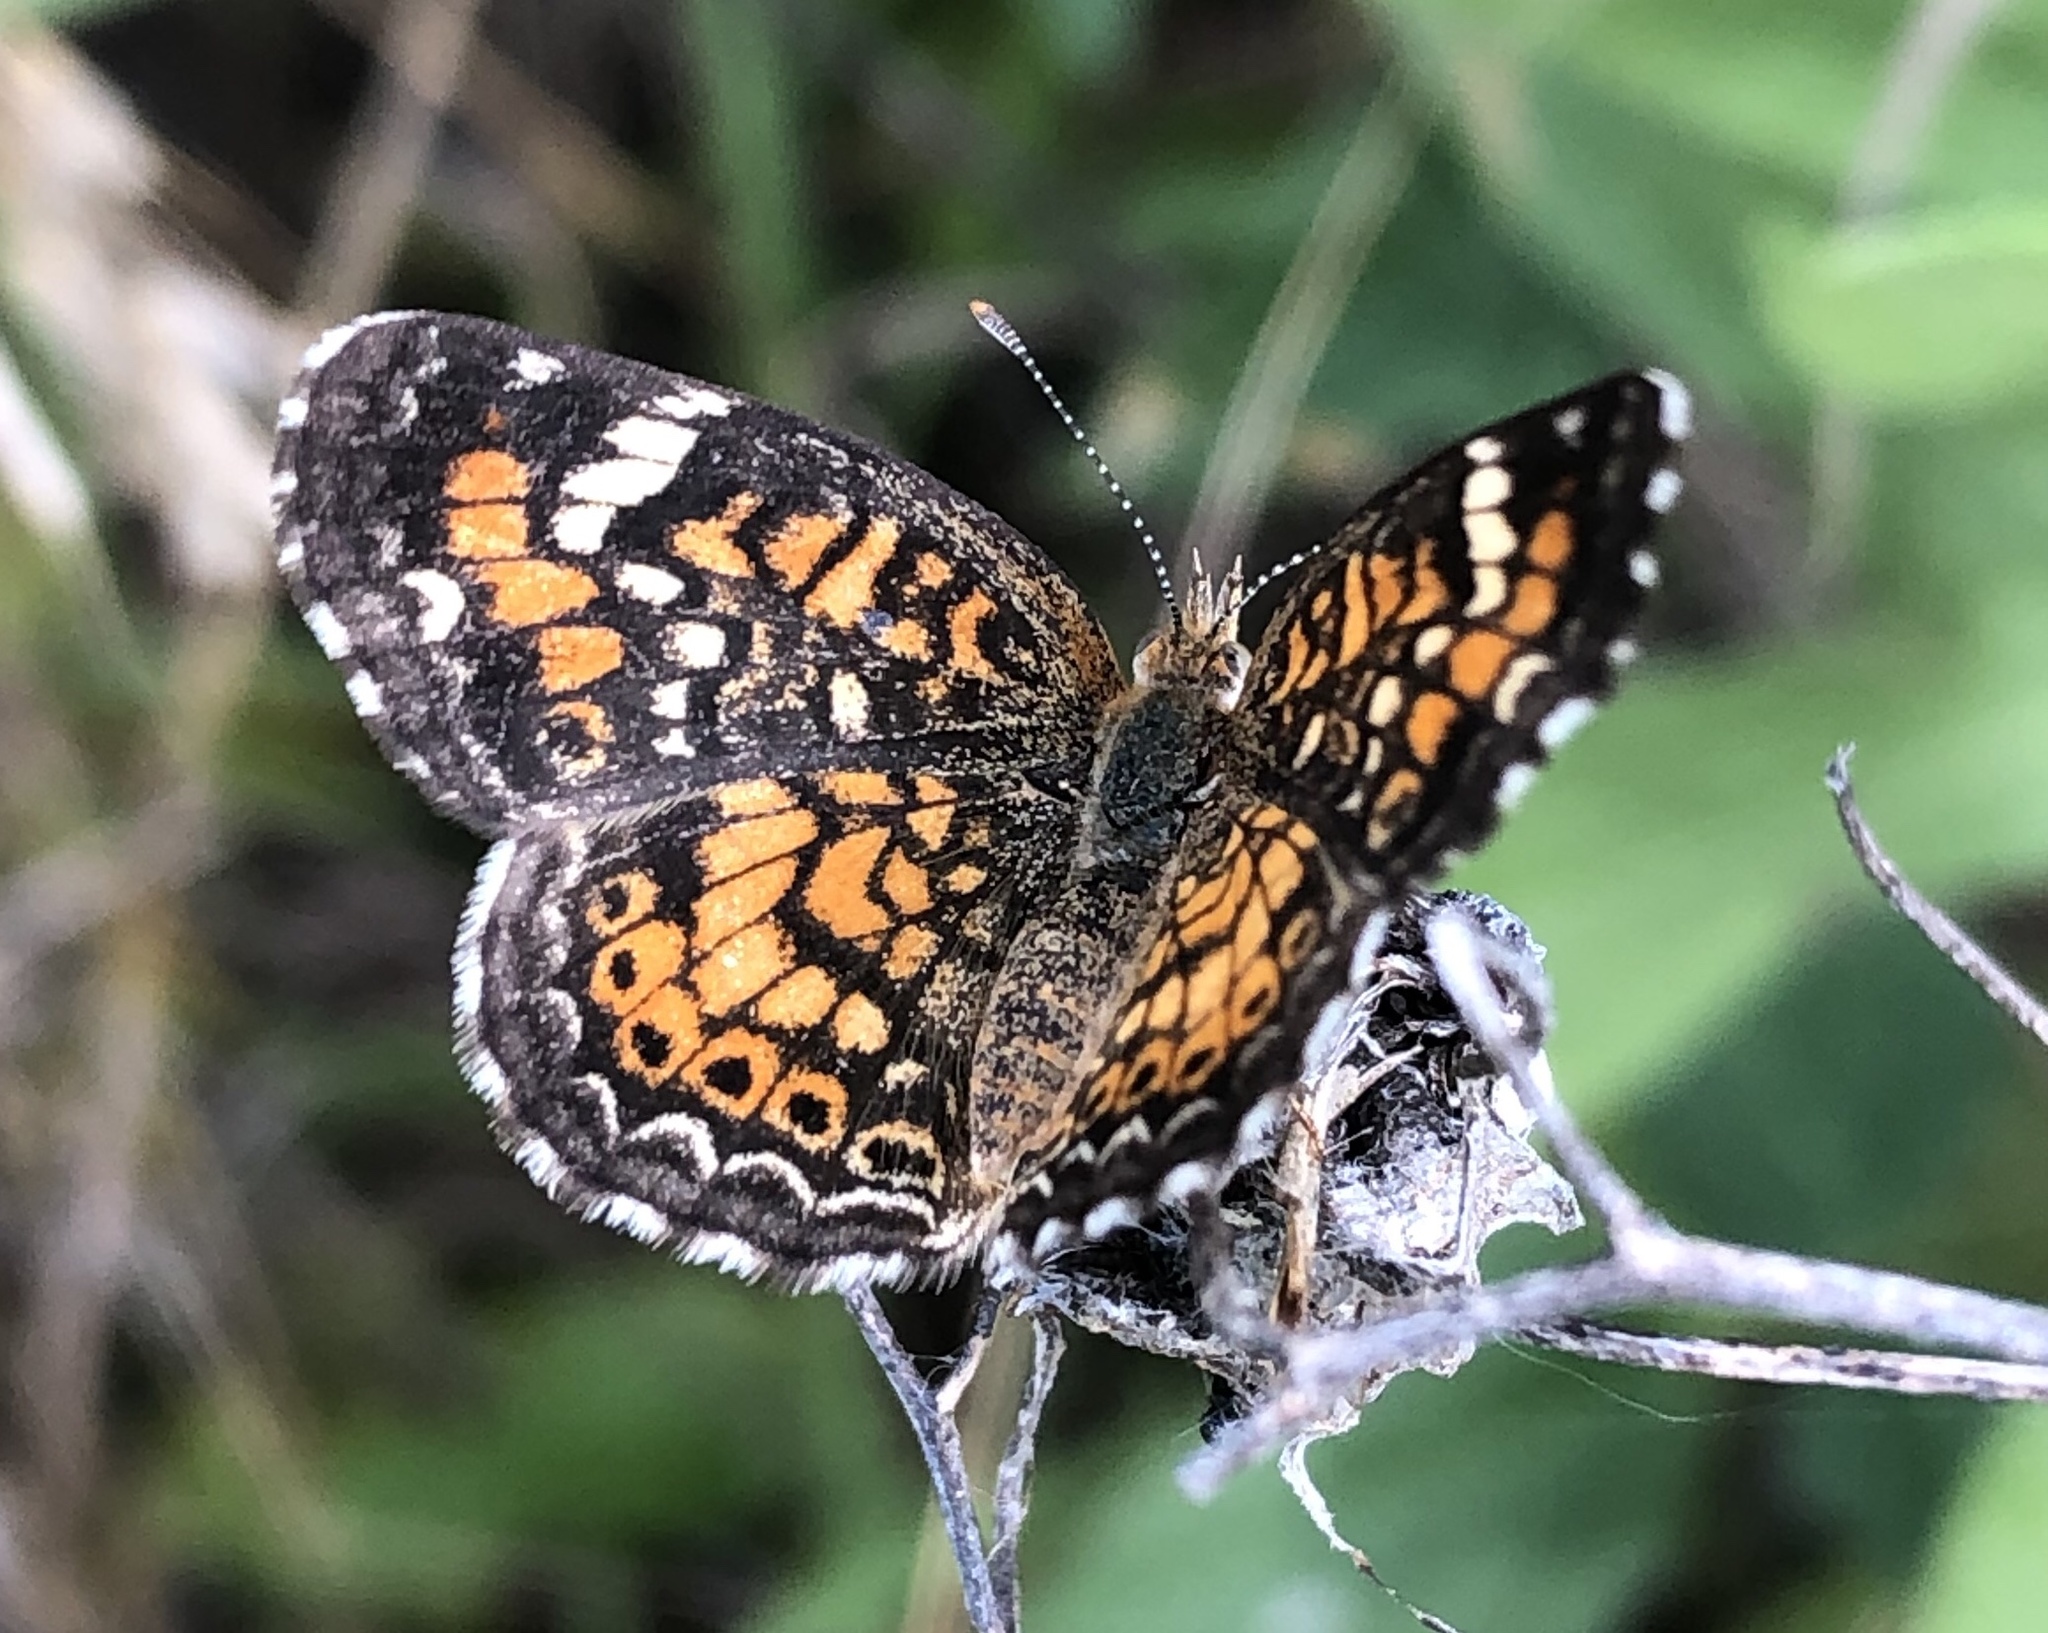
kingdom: Animalia
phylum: Arthropoda
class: Insecta
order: Lepidoptera
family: Nymphalidae
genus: Phyciodes
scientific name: Phyciodes phaon
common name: Phaon crescent
